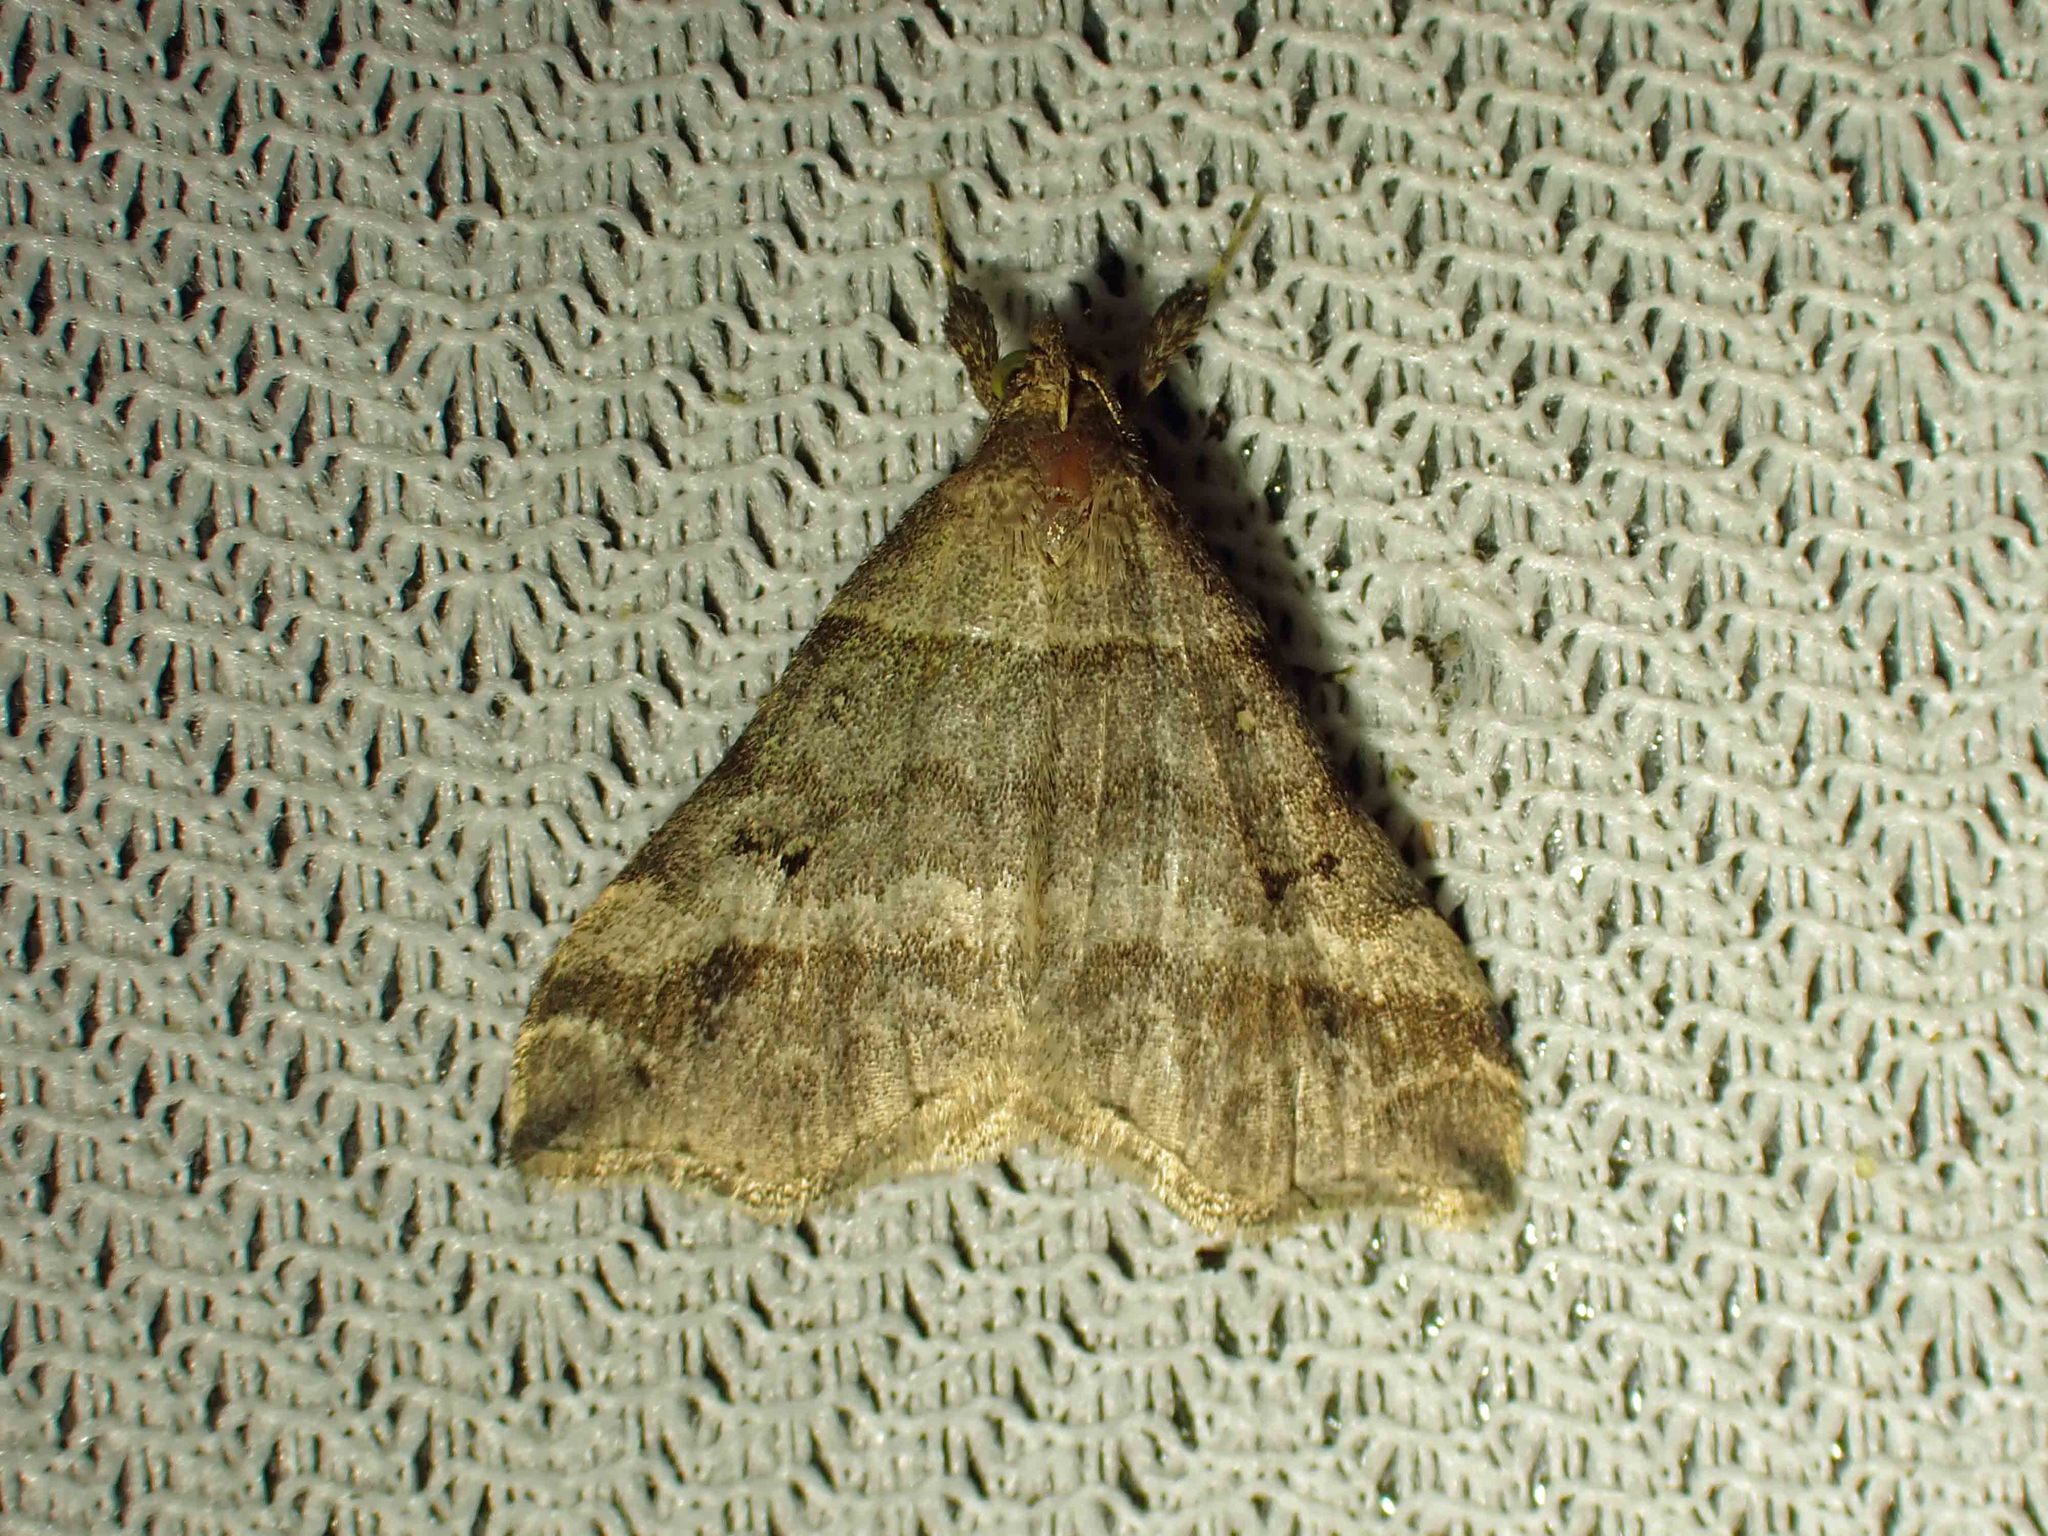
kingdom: Animalia
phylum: Arthropoda
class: Insecta
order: Lepidoptera
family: Erebidae
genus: Phaeolita
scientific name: Phaeolita pyramusalis
